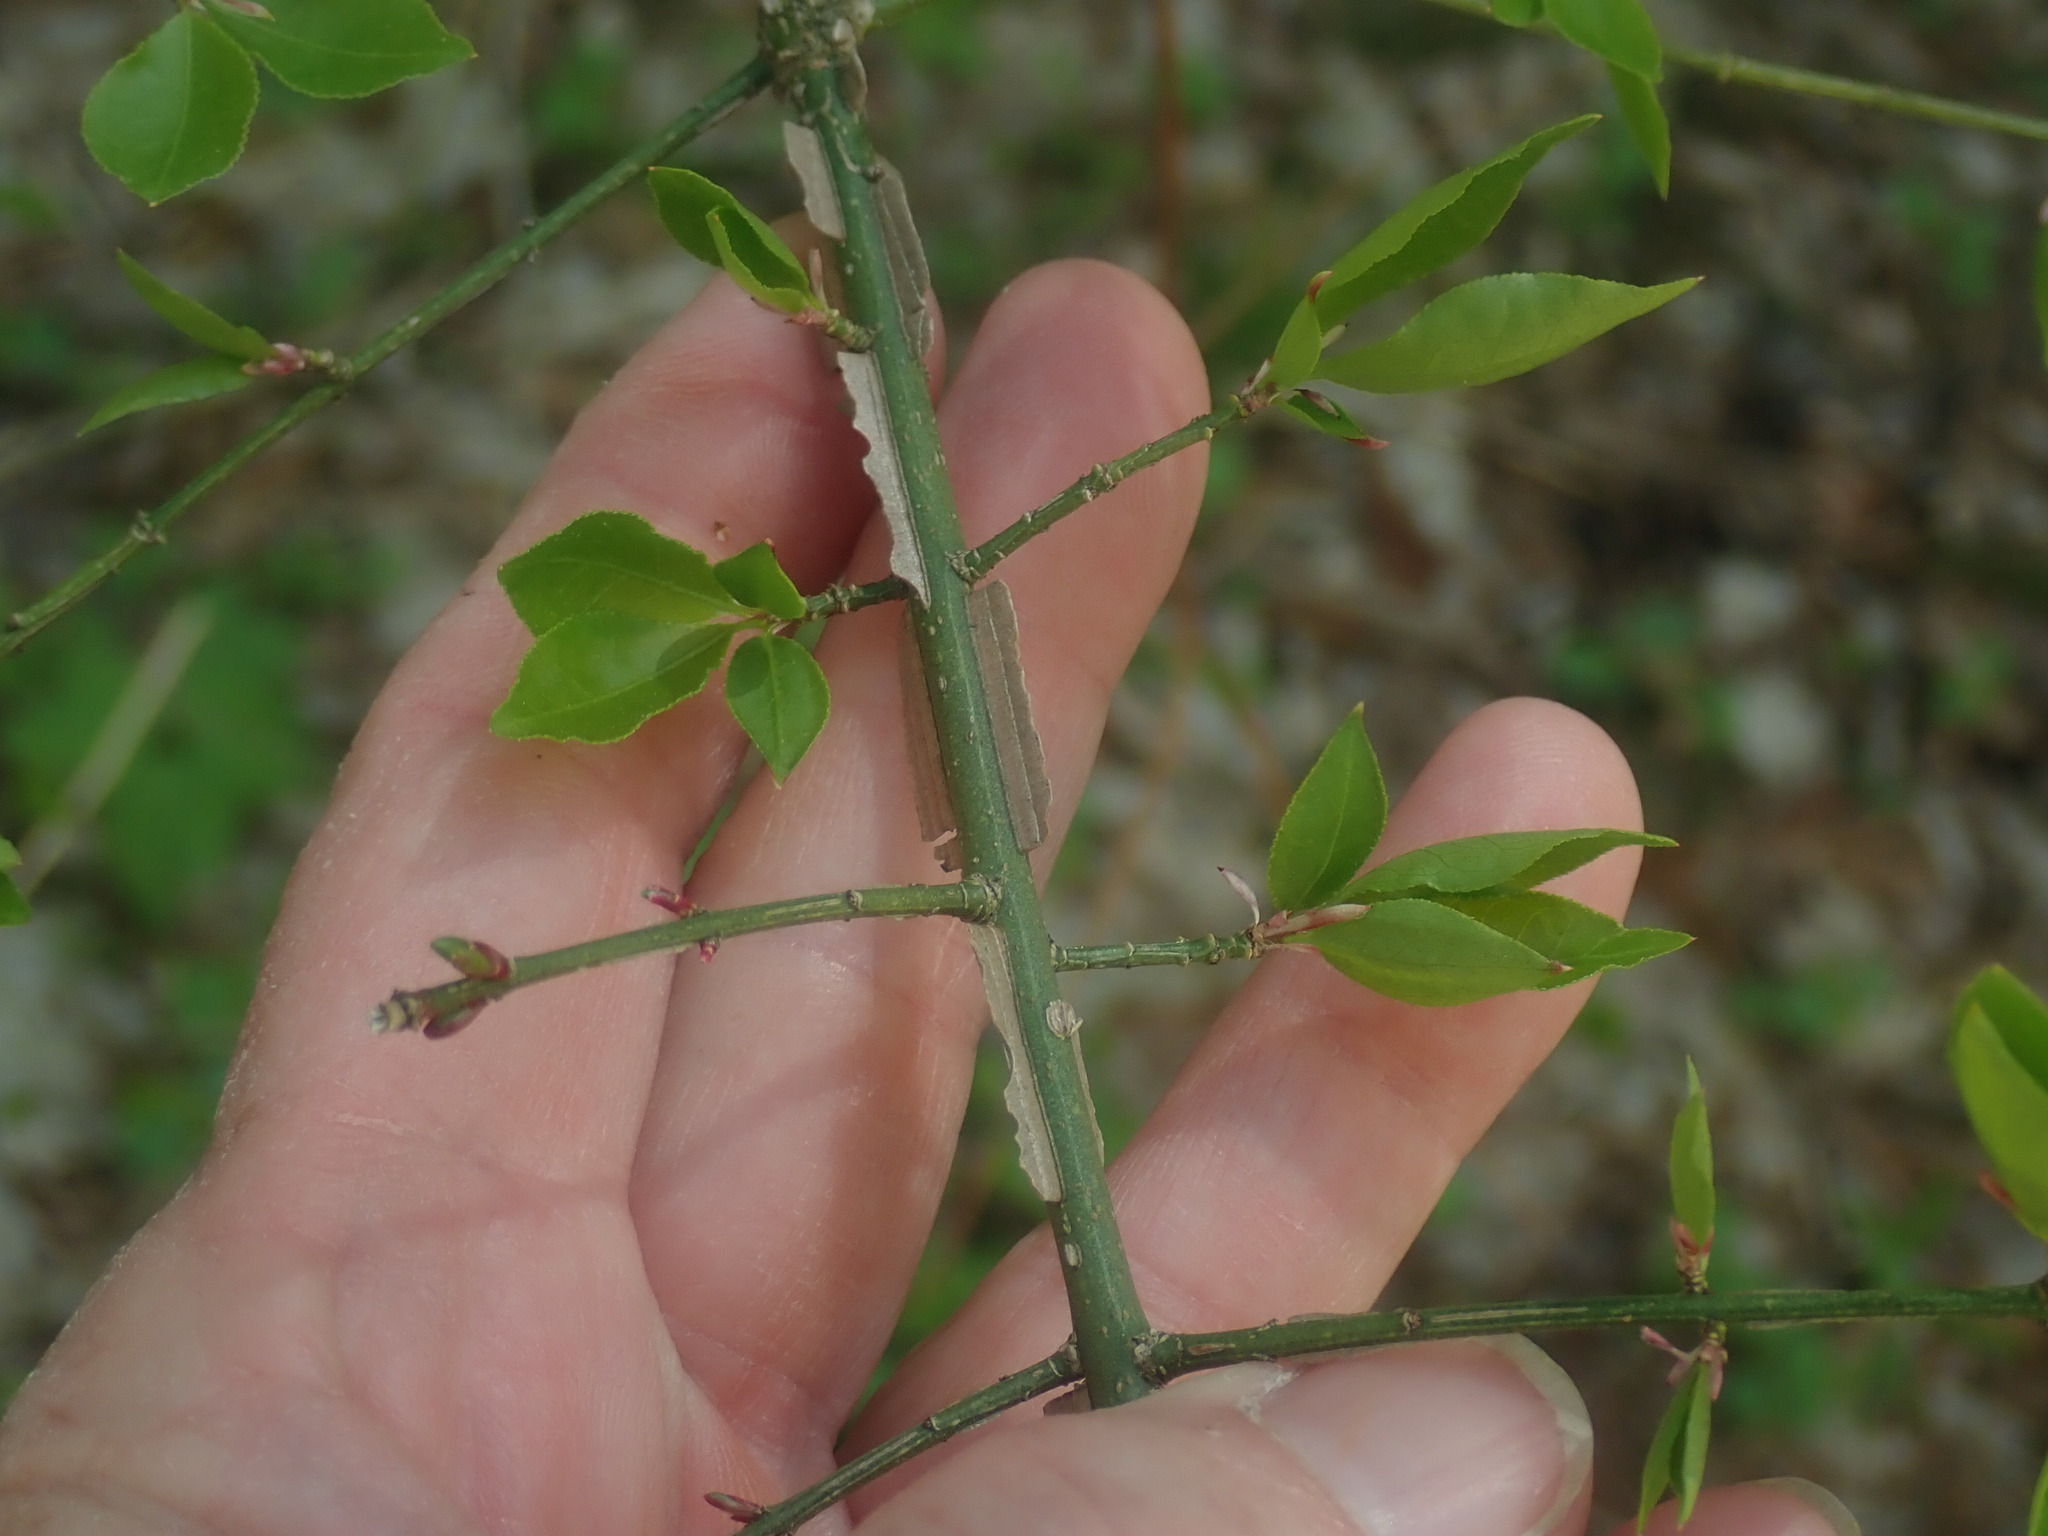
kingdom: Plantae
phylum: Tracheophyta
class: Magnoliopsida
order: Celastrales
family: Celastraceae
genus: Euonymus
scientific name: Euonymus alatus
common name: Winged euonymus
